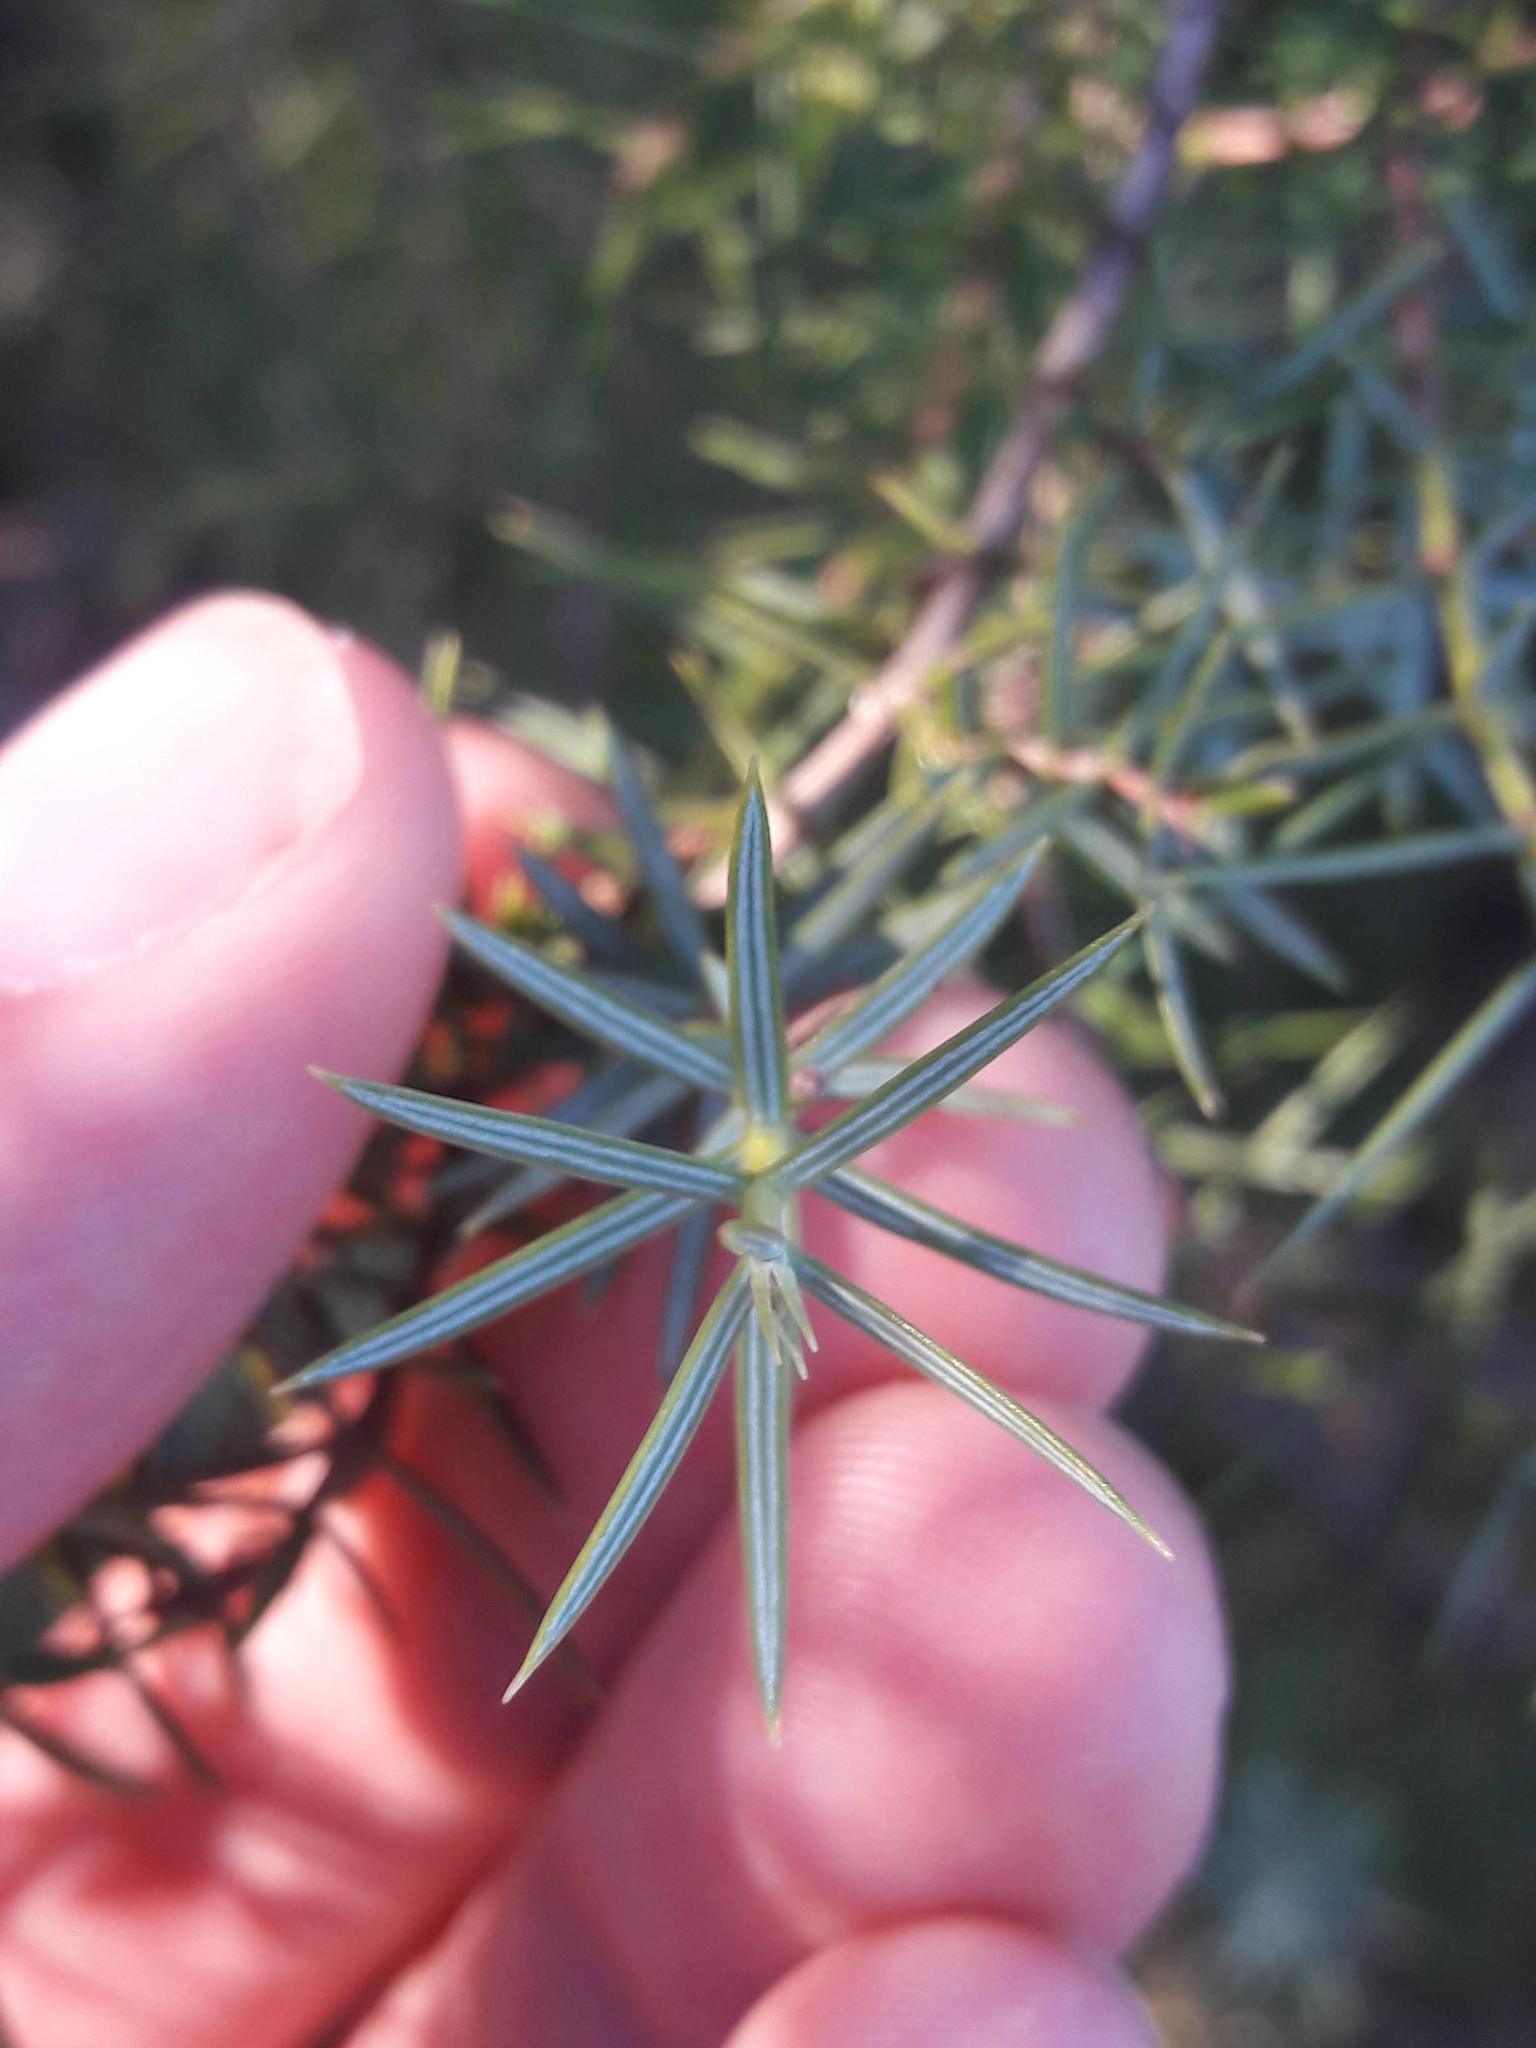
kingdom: Plantae
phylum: Tracheophyta
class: Pinopsida
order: Pinales
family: Cupressaceae
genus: Juniperus
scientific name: Juniperus oxycedrus
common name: Prickly juniper
